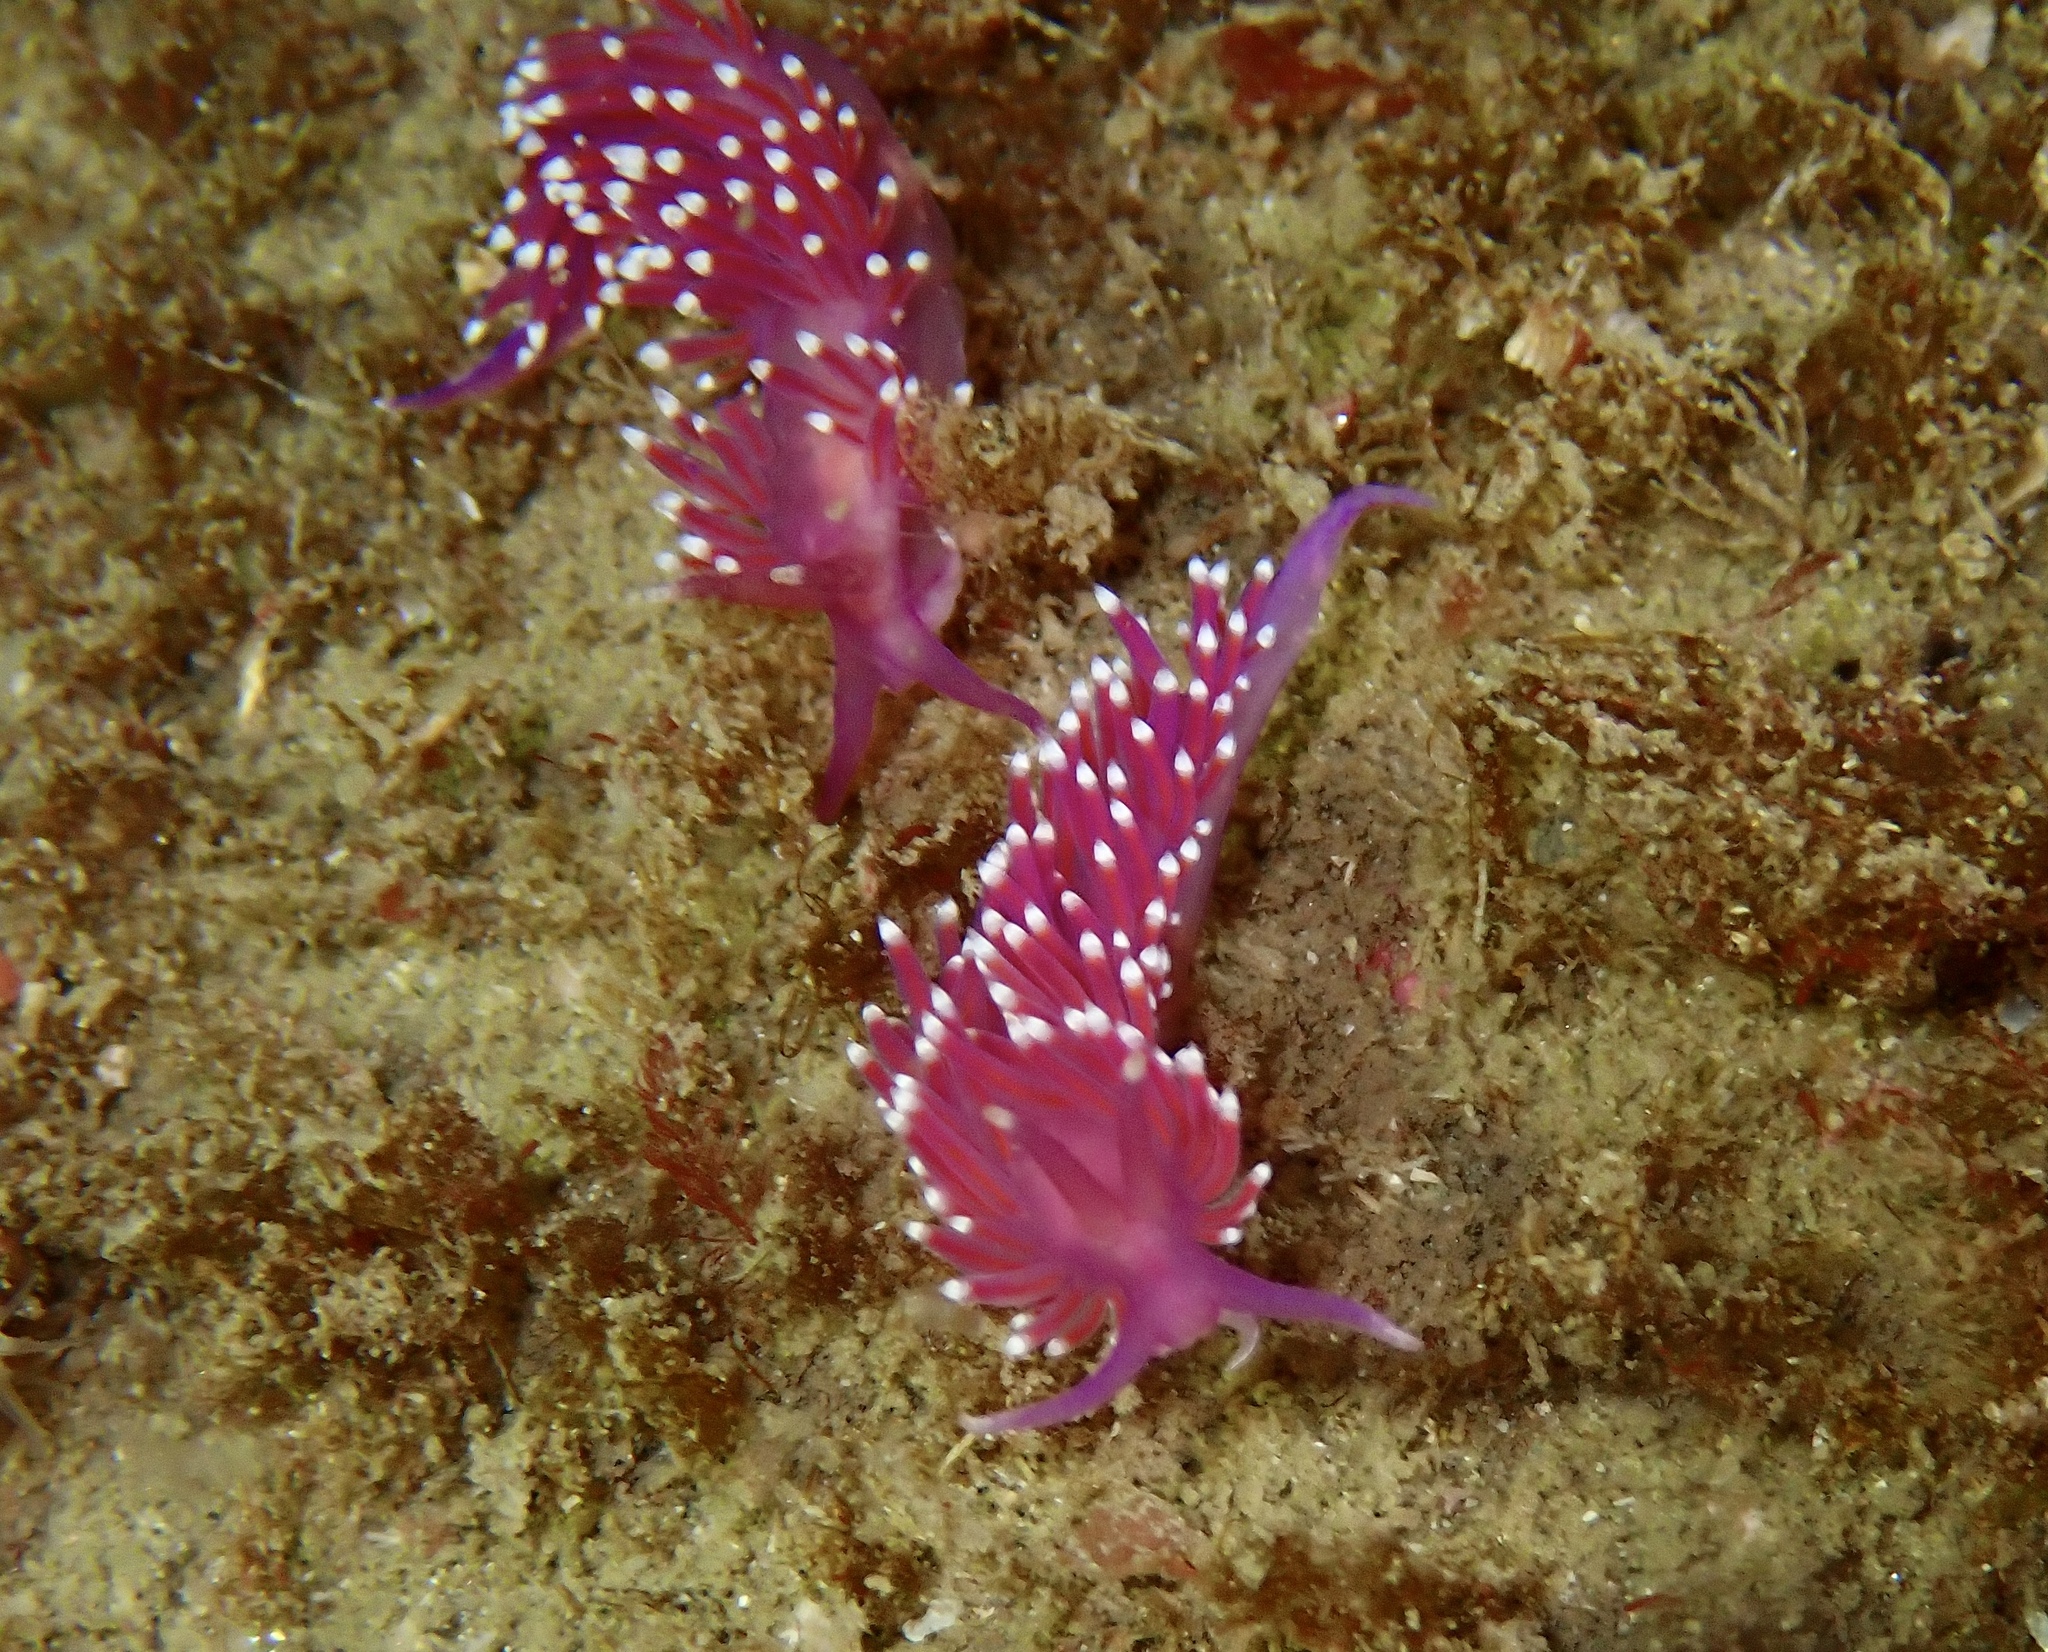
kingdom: Animalia
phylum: Mollusca
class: Gastropoda
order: Nudibranchia
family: Flabellinidae
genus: Edmundsella
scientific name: Edmundsella pedata
